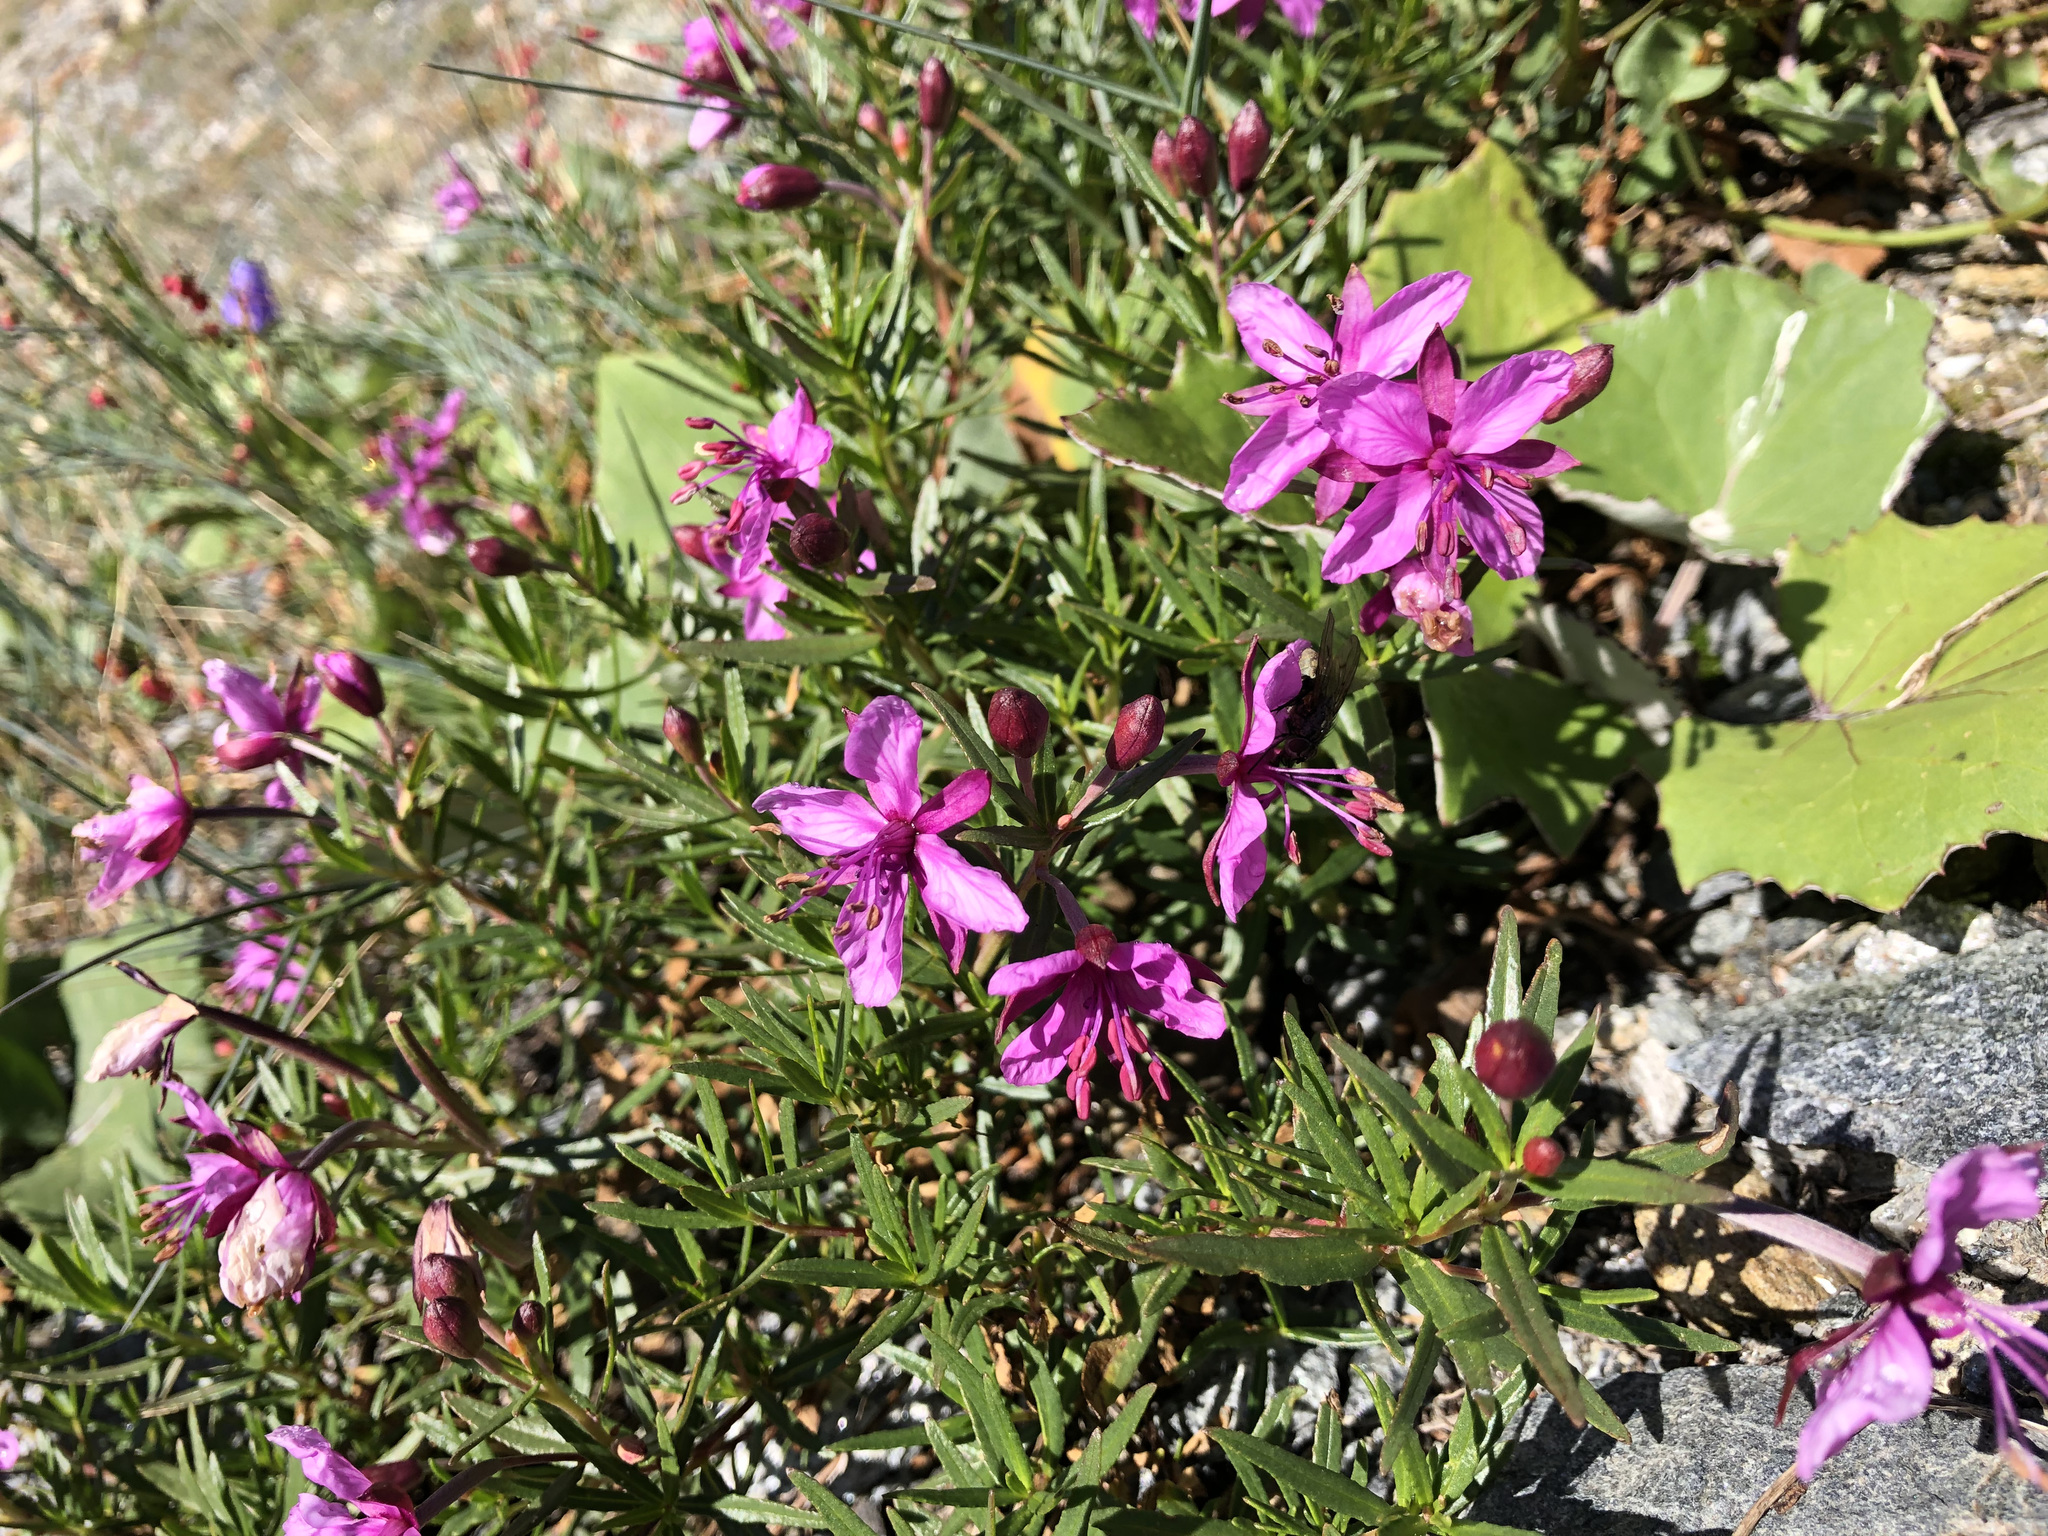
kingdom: Plantae
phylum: Tracheophyta
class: Magnoliopsida
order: Myrtales
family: Onagraceae
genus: Chamaenerion
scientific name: Chamaenerion fleischeri
